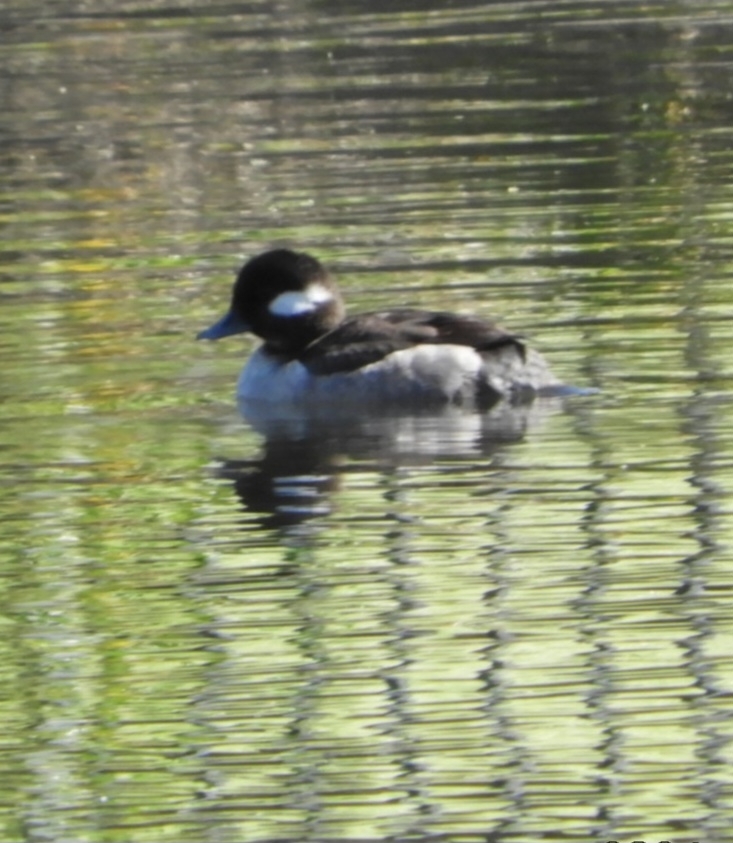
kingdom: Animalia
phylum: Chordata
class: Aves
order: Anseriformes
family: Anatidae
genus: Bucephala
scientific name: Bucephala albeola
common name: Bufflehead
